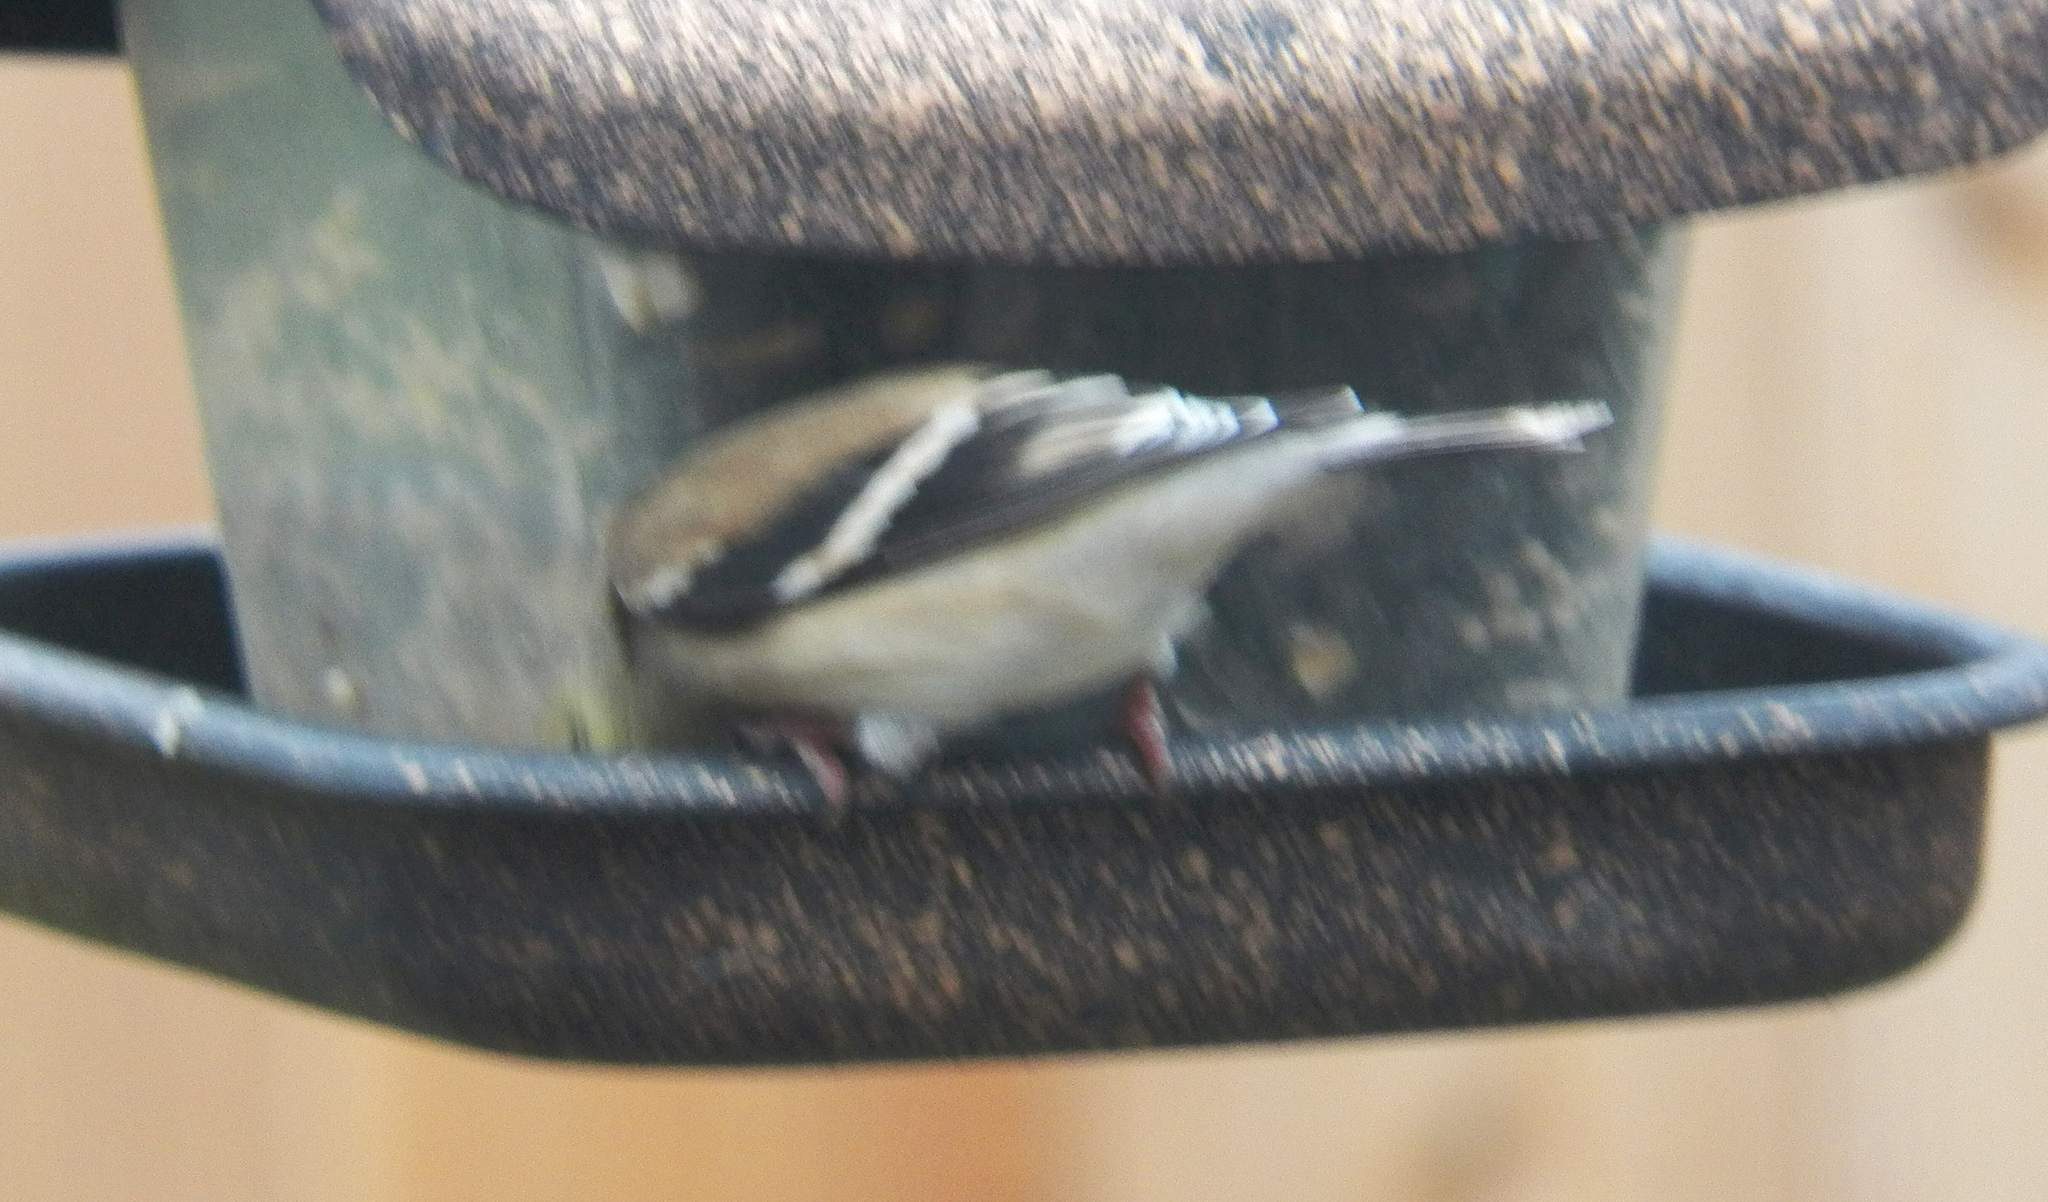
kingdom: Animalia
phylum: Chordata
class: Aves
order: Passeriformes
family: Fringillidae
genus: Spinus
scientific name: Spinus tristis
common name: American goldfinch
